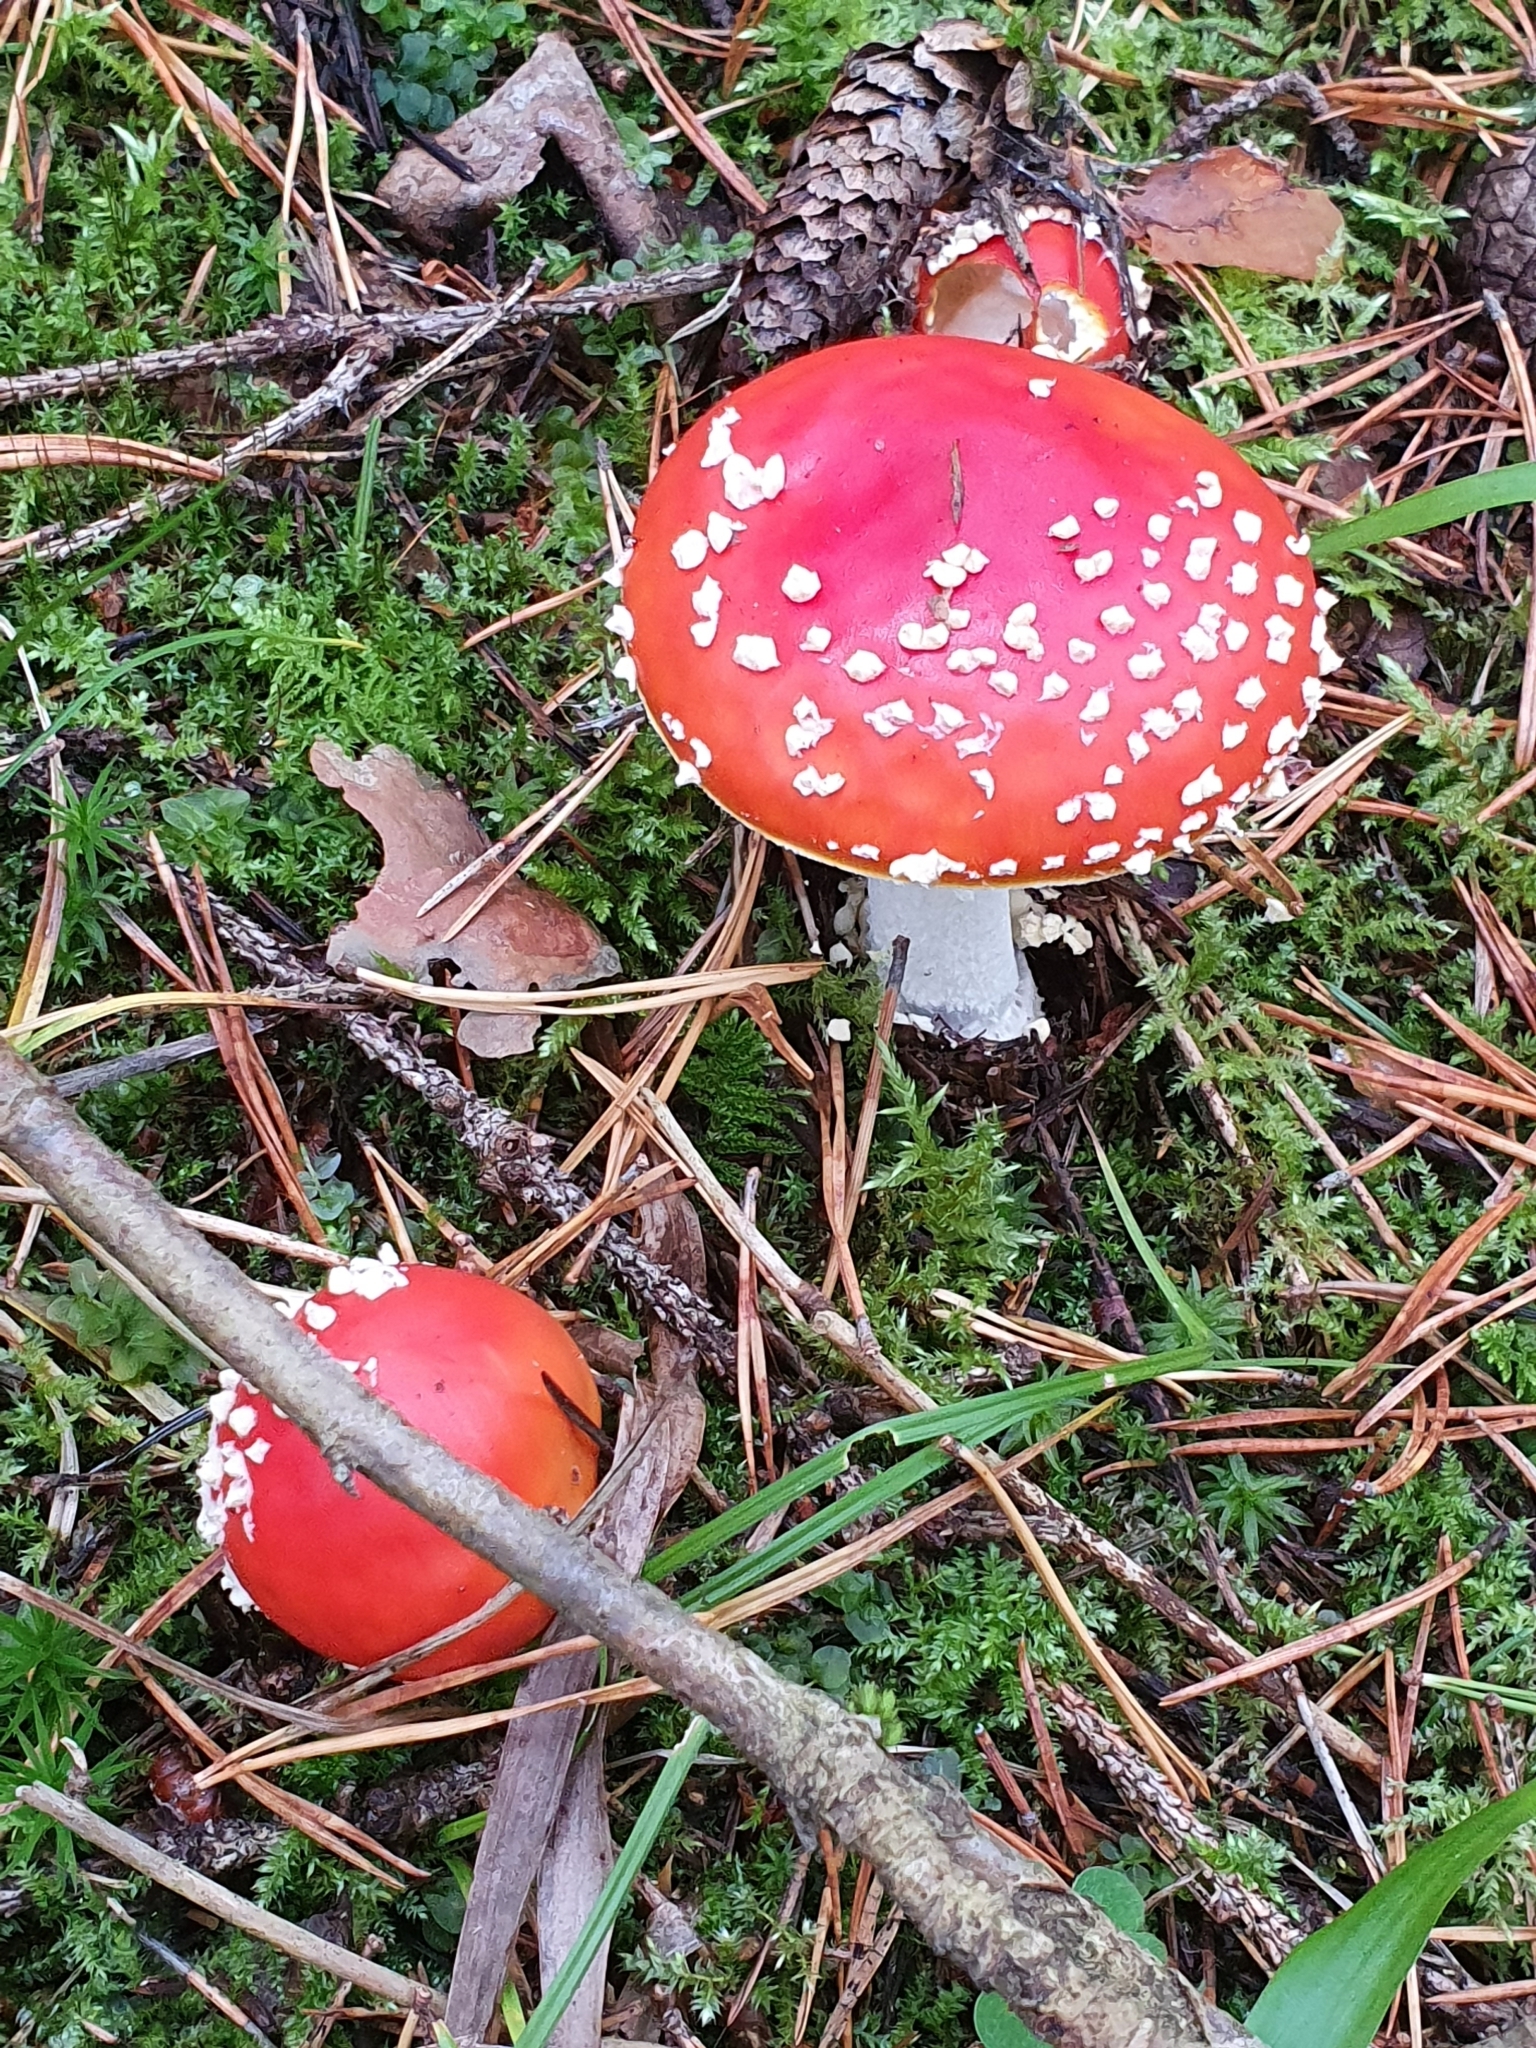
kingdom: Fungi
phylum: Basidiomycota
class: Agaricomycetes
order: Agaricales
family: Amanitaceae
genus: Amanita
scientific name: Amanita muscaria
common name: Fly agaric
